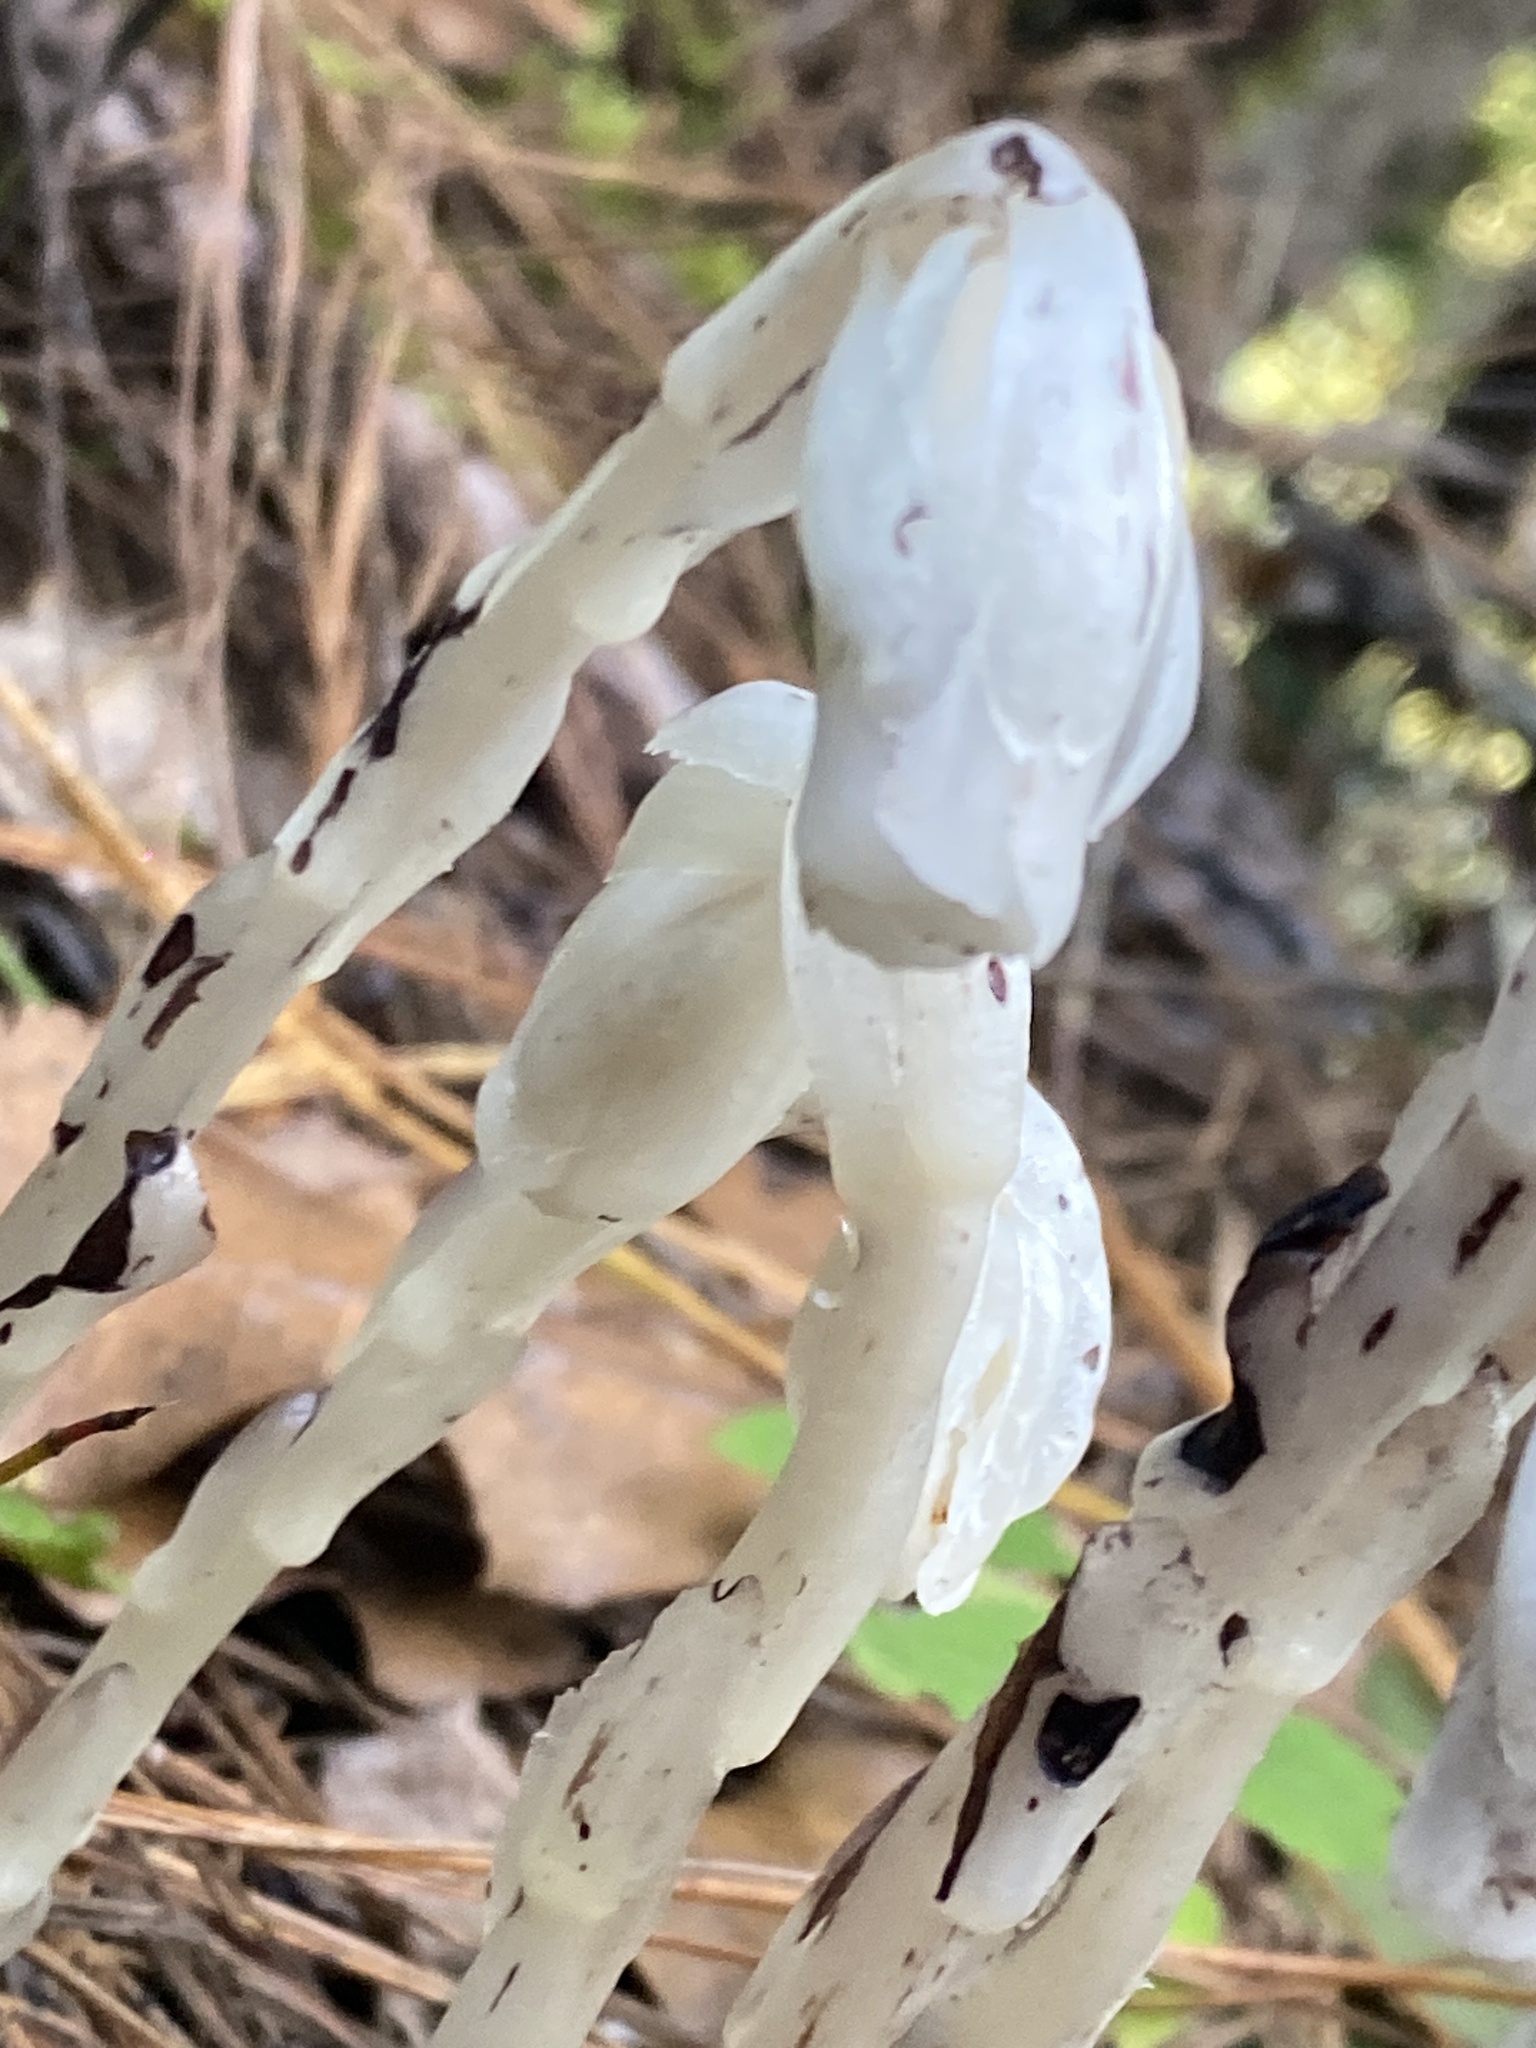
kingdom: Plantae
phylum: Tracheophyta
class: Magnoliopsida
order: Ericales
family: Ericaceae
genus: Monotropa
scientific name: Monotropa uniflora
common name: Convulsion root
